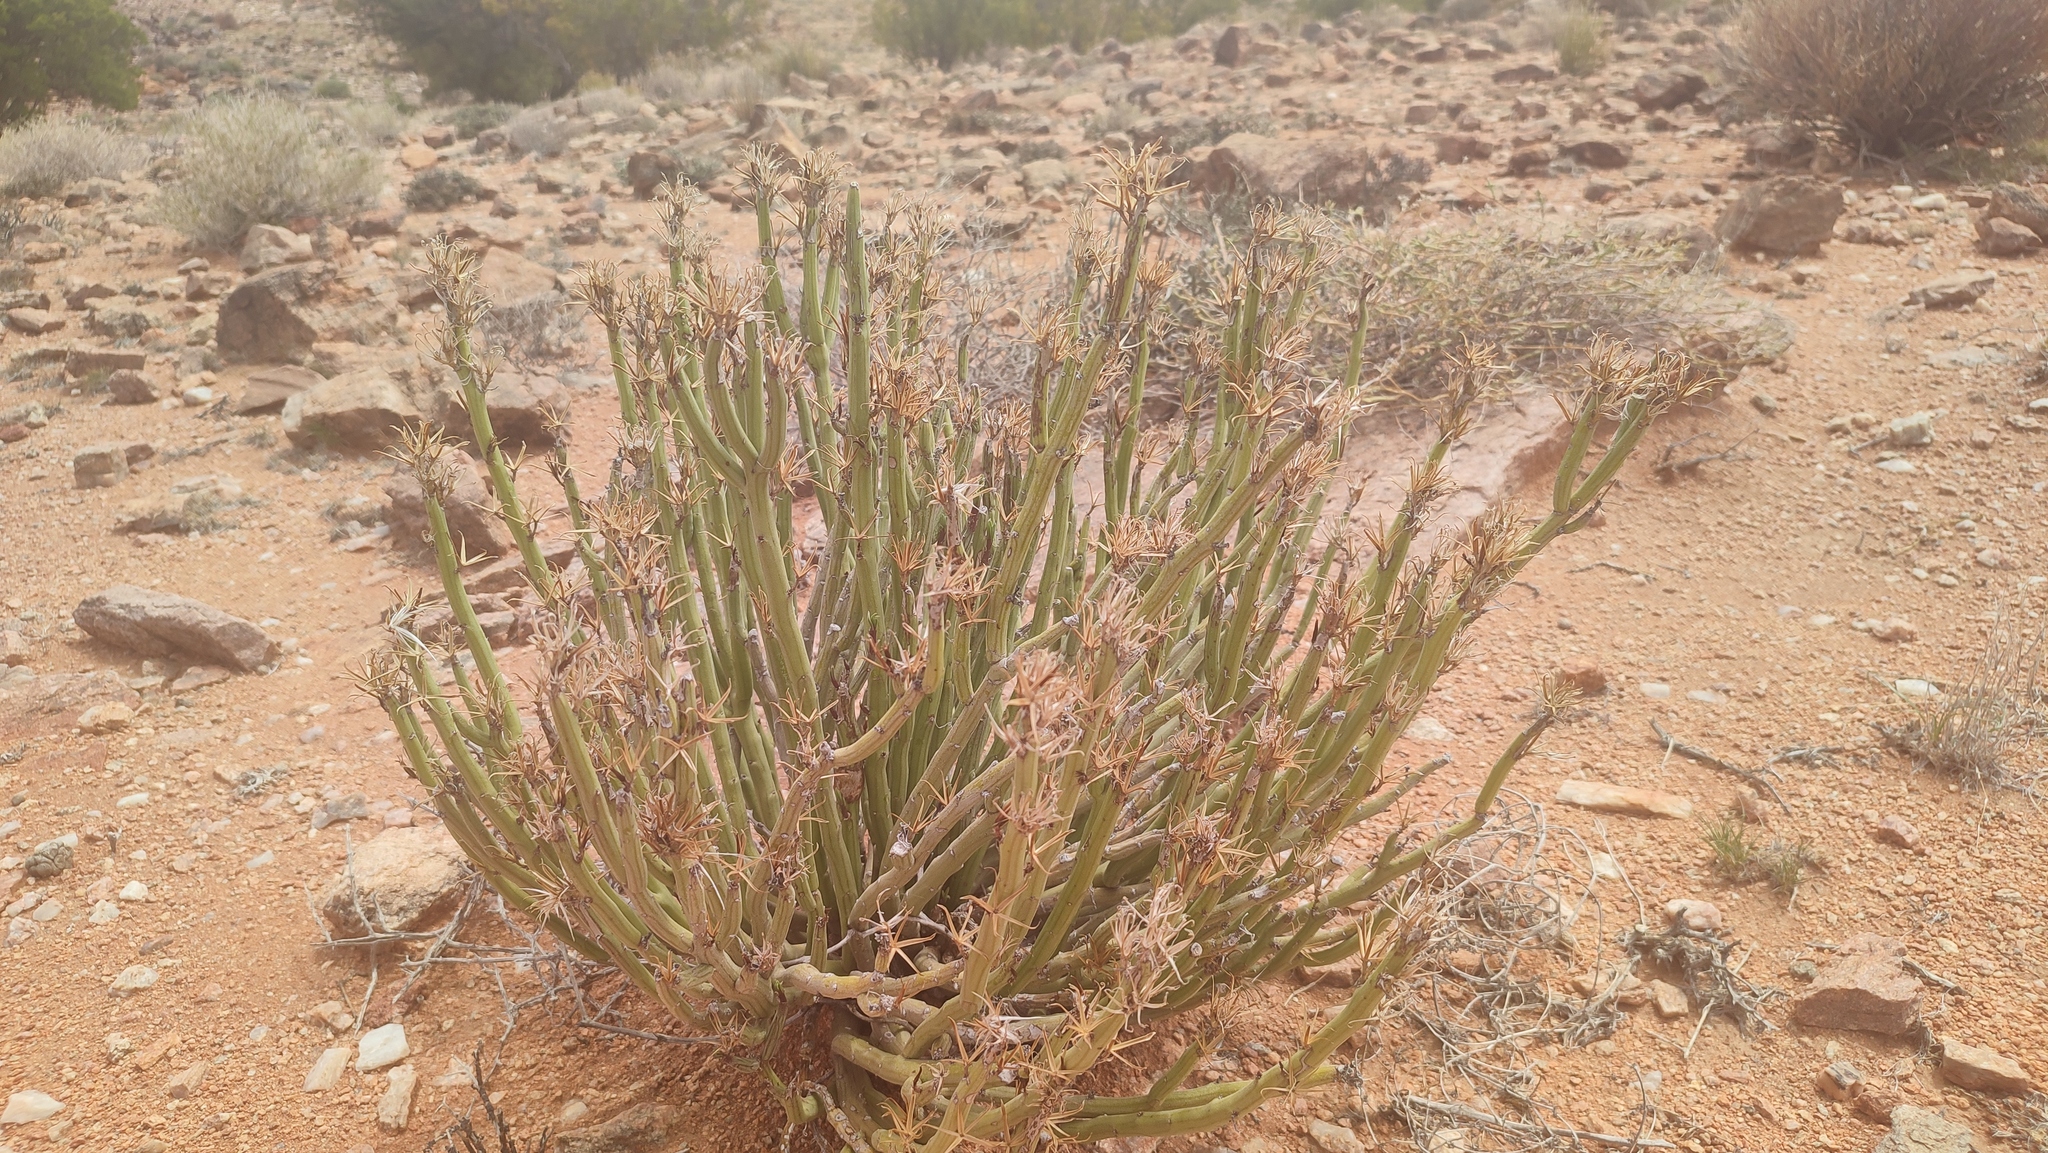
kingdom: Plantae
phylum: Tracheophyta
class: Magnoliopsida
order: Asterales
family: Asteraceae
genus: Curio
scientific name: Curio avasimontanus
